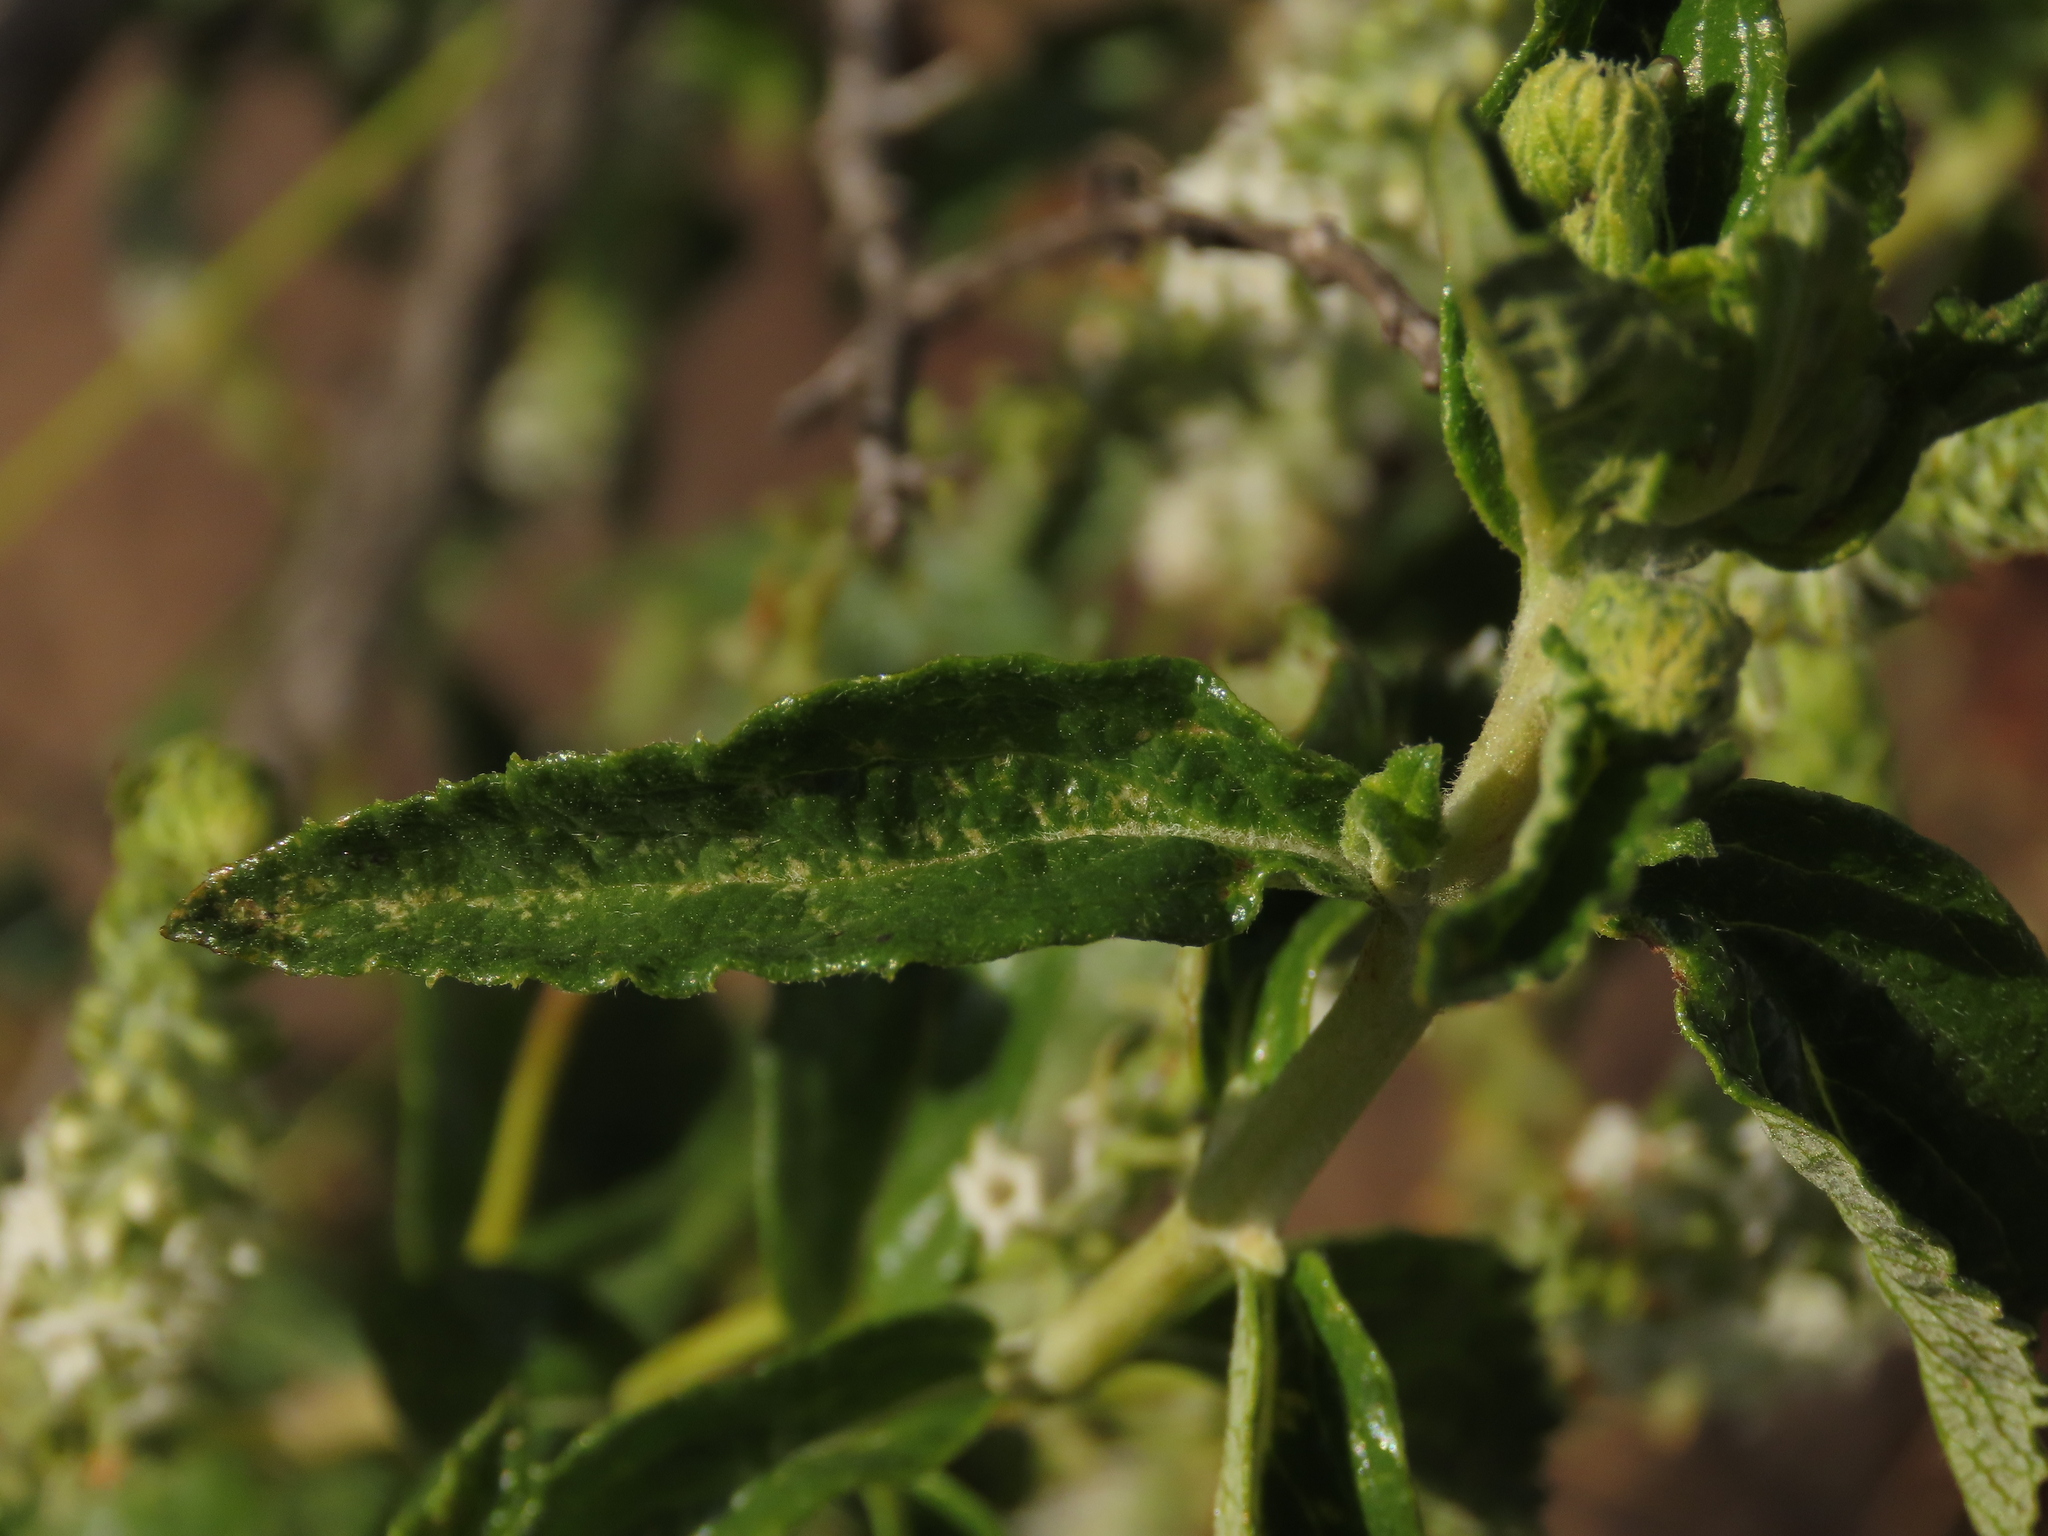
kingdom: Plantae
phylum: Tracheophyta
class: Magnoliopsida
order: Lamiales
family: Verbenaceae
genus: Aloysia
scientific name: Aloysia salviifolia
